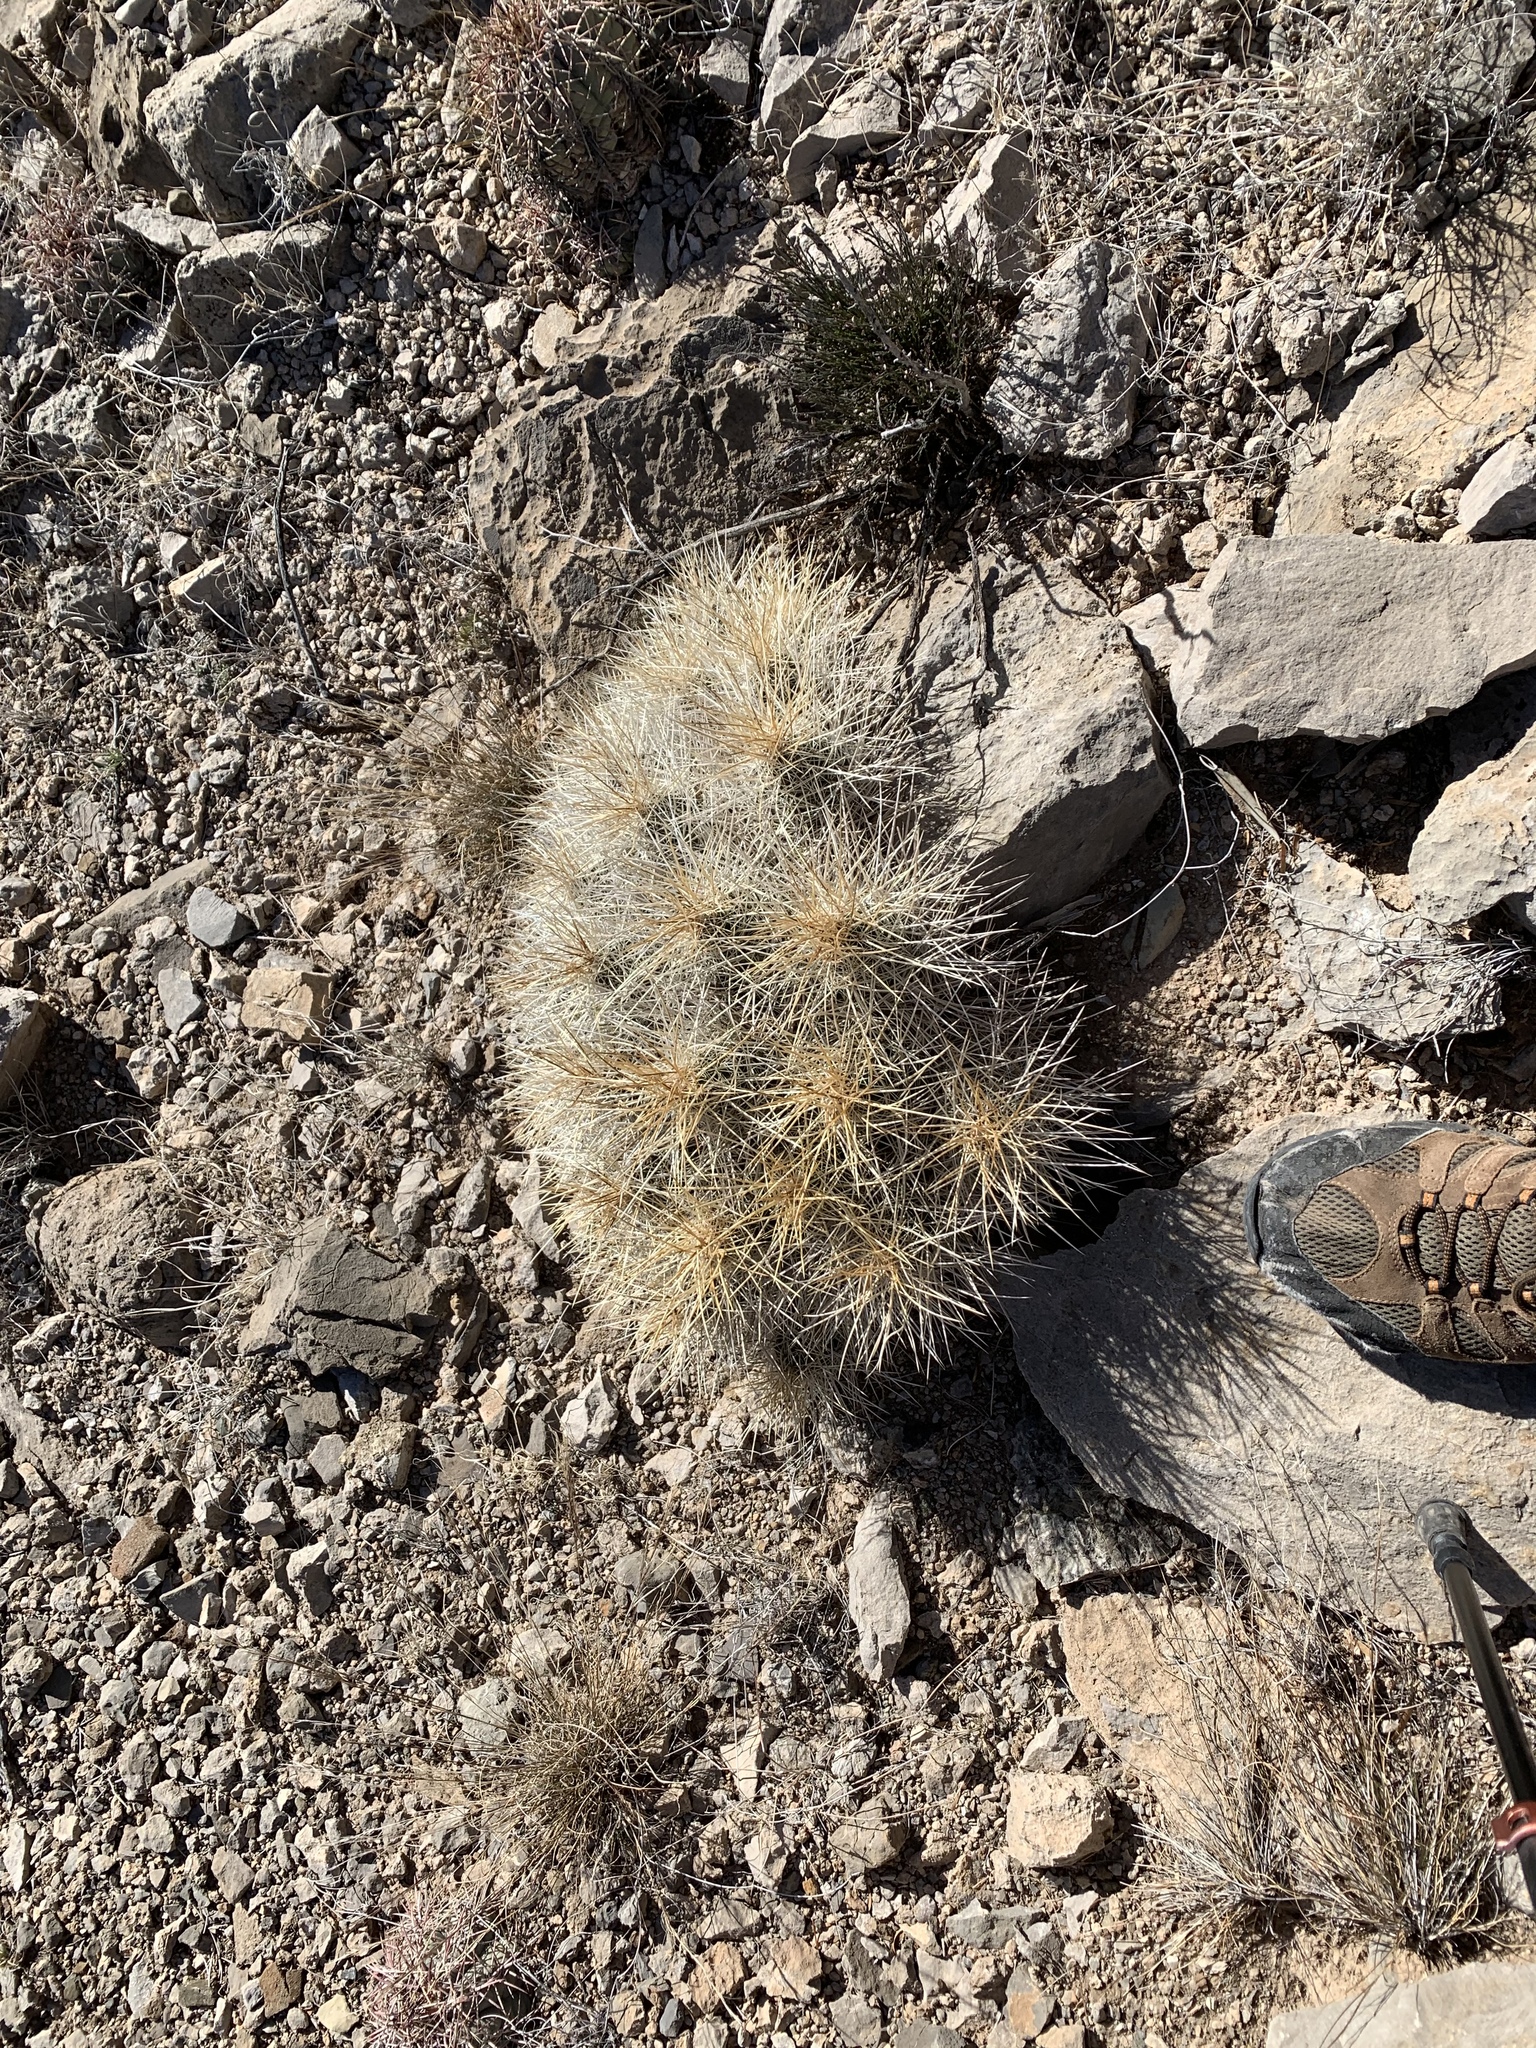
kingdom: Plantae
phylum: Tracheophyta
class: Magnoliopsida
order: Caryophyllales
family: Cactaceae
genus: Echinocereus
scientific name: Echinocereus stramineus
